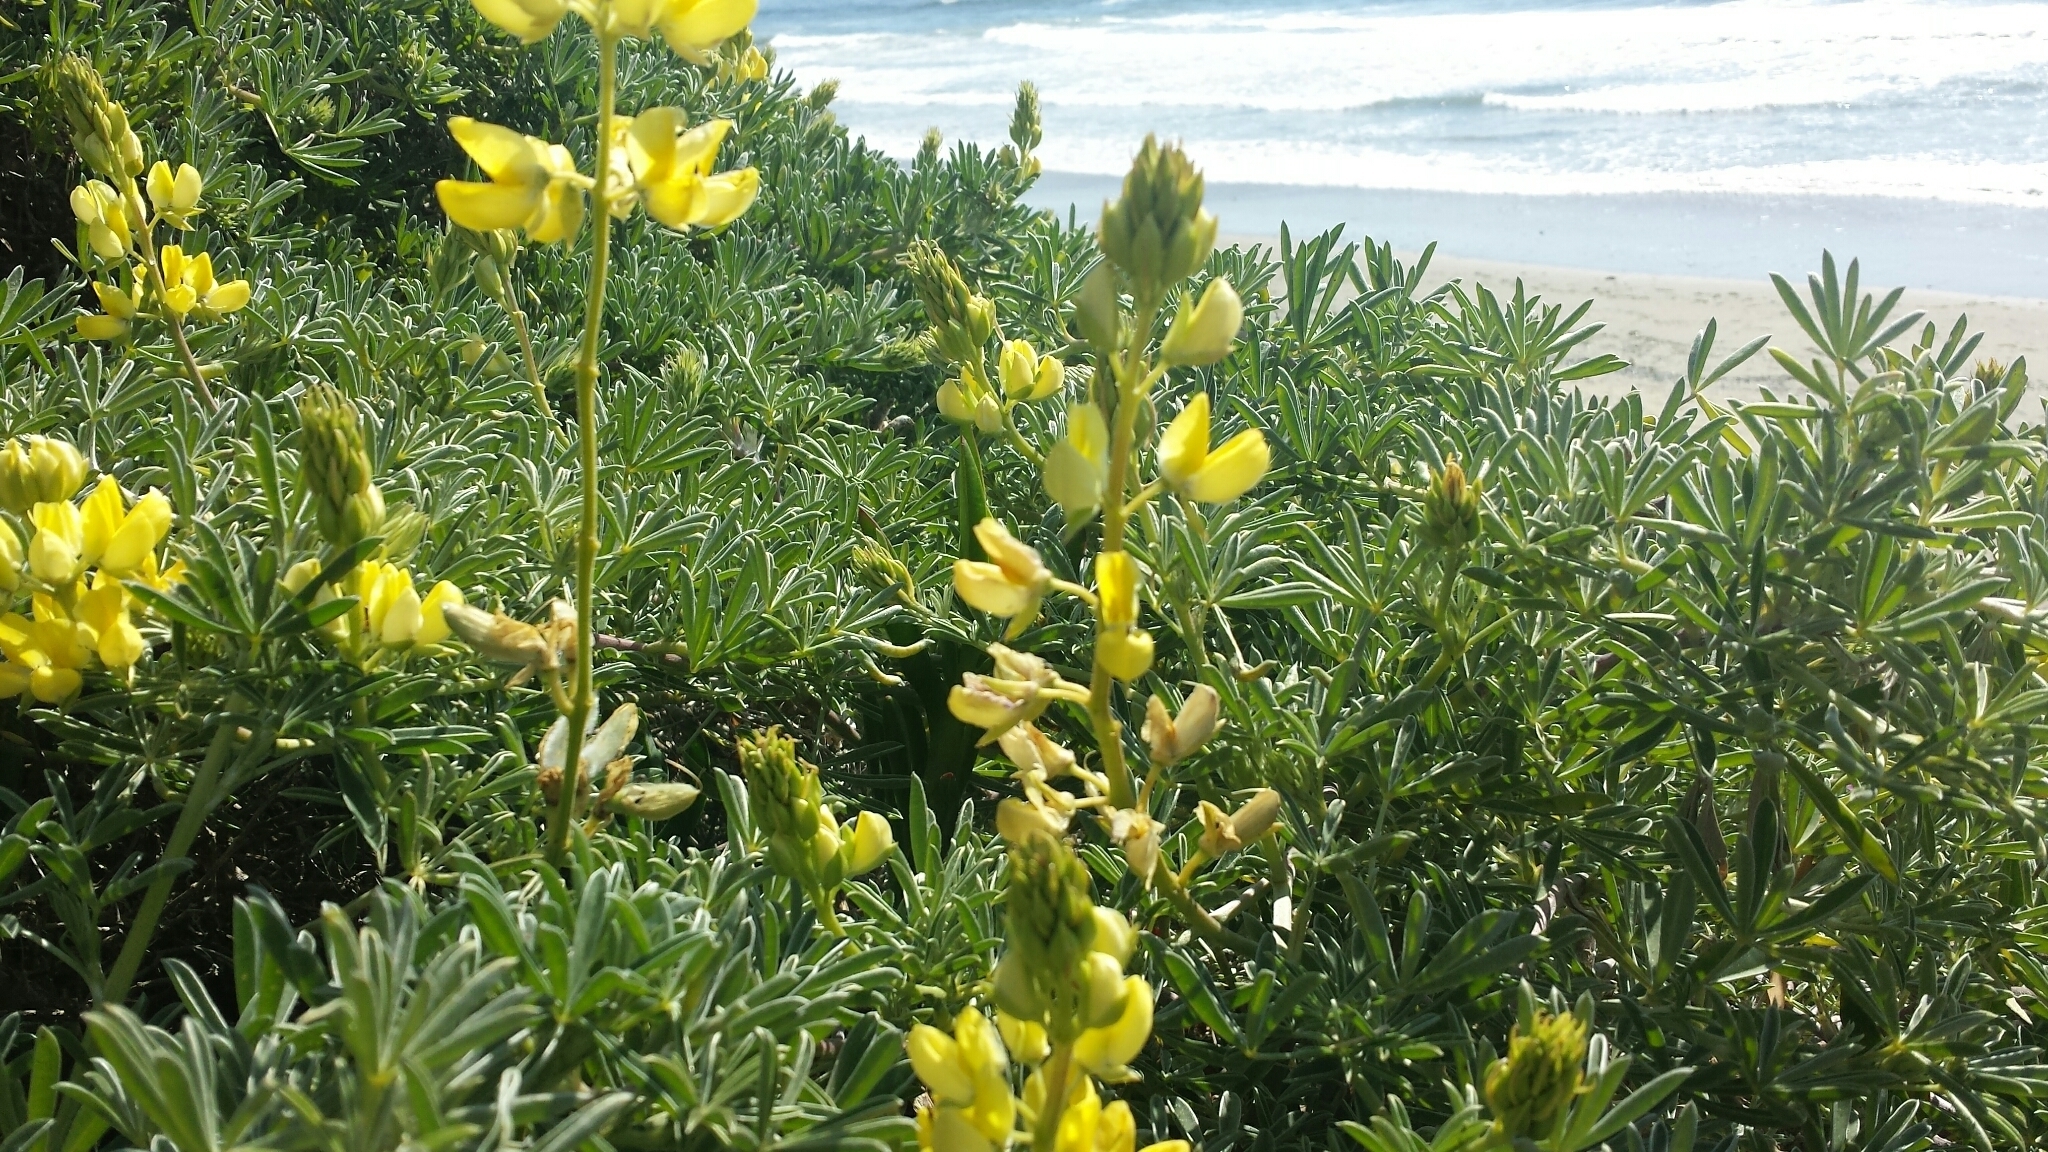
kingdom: Plantae
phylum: Tracheophyta
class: Magnoliopsida
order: Fabales
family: Fabaceae
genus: Lupinus
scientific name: Lupinus arboreus
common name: Yellow bush lupine
